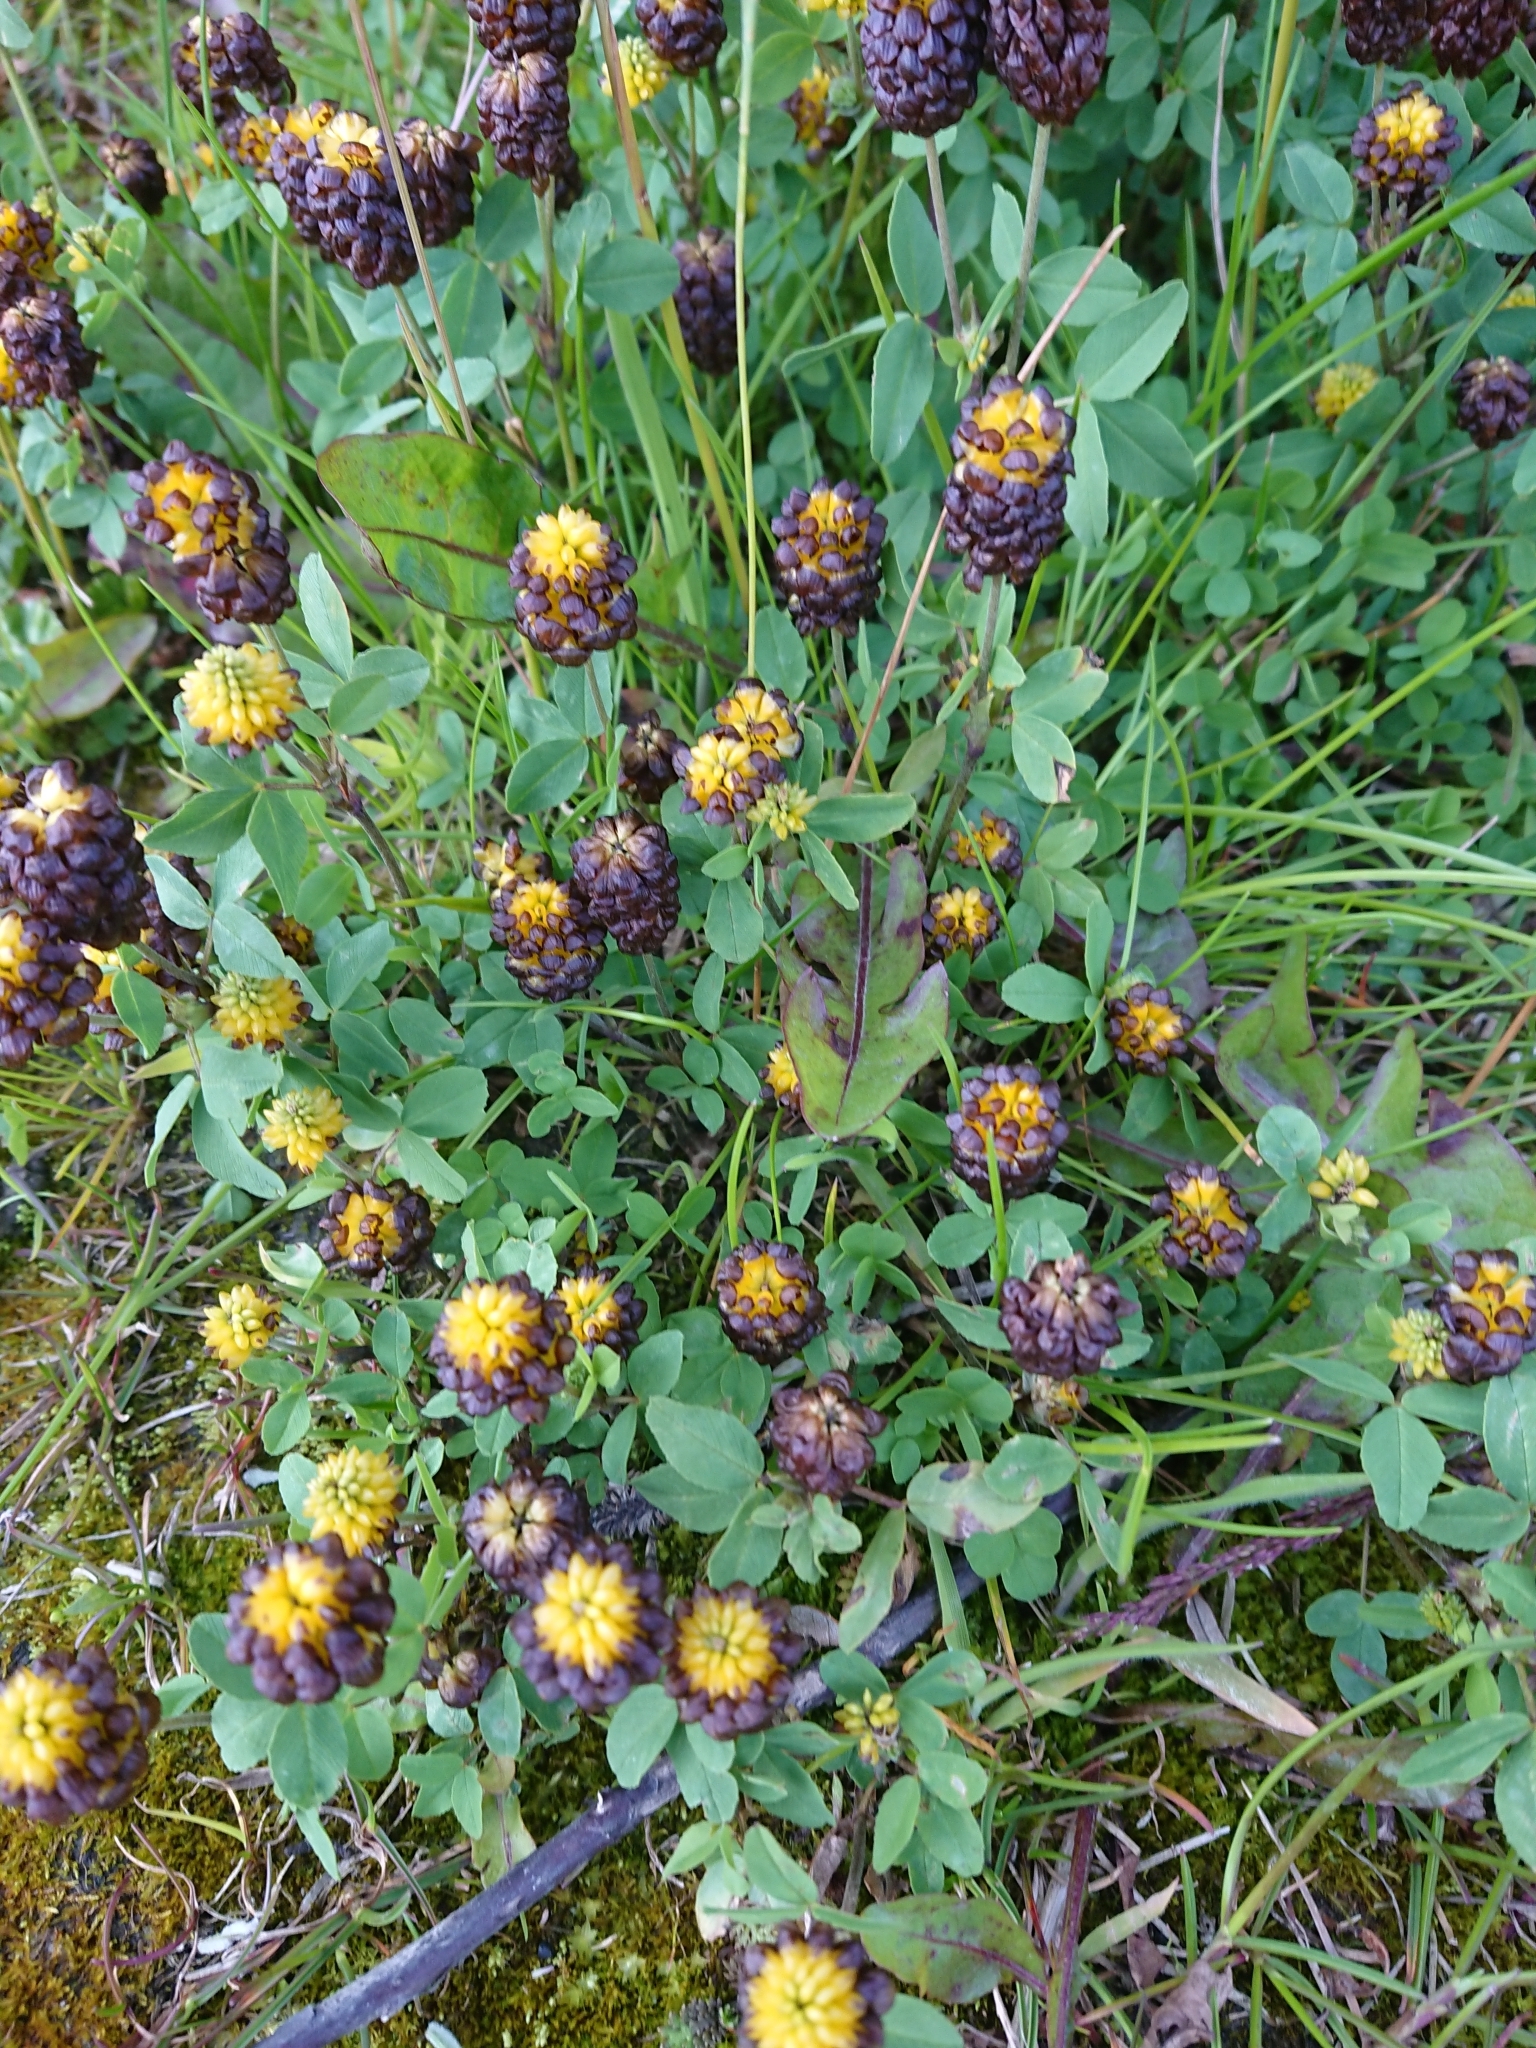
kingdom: Plantae
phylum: Tracheophyta
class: Magnoliopsida
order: Fabales
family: Fabaceae
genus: Trifolium
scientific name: Trifolium spadiceum
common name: Brown moor clover
